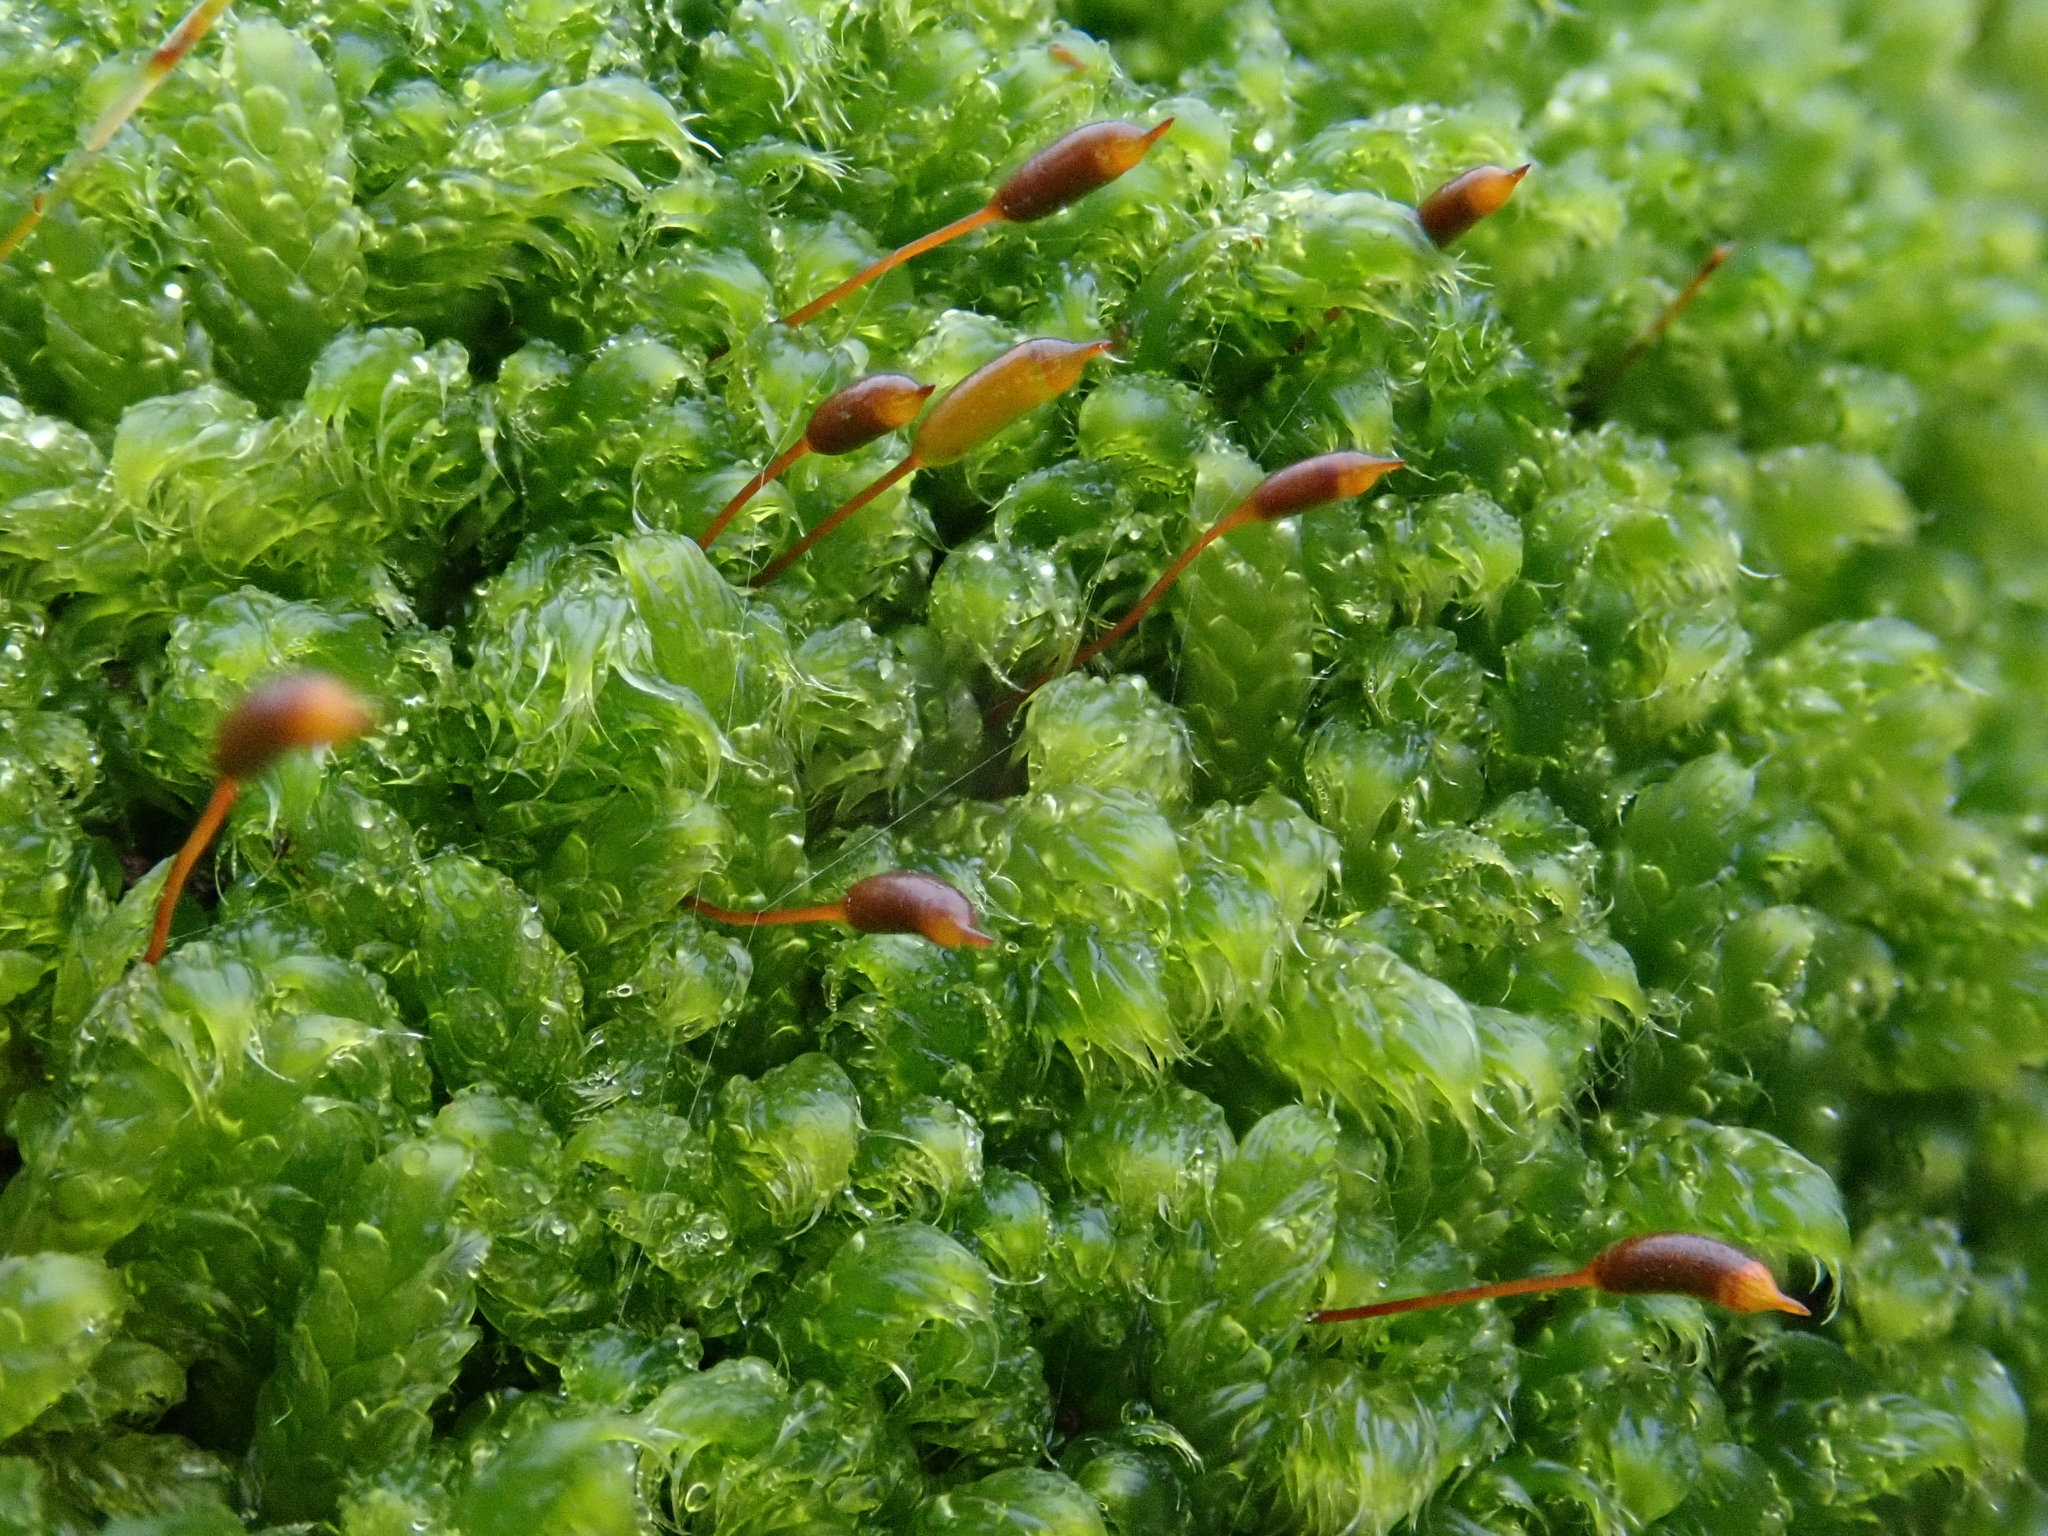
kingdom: Plantae
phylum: Bryophyta
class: Bryopsida
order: Hypnales
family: Hypnaceae
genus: Hypnum
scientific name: Hypnum cupressiforme
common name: Cypress-leaved plait-moss
